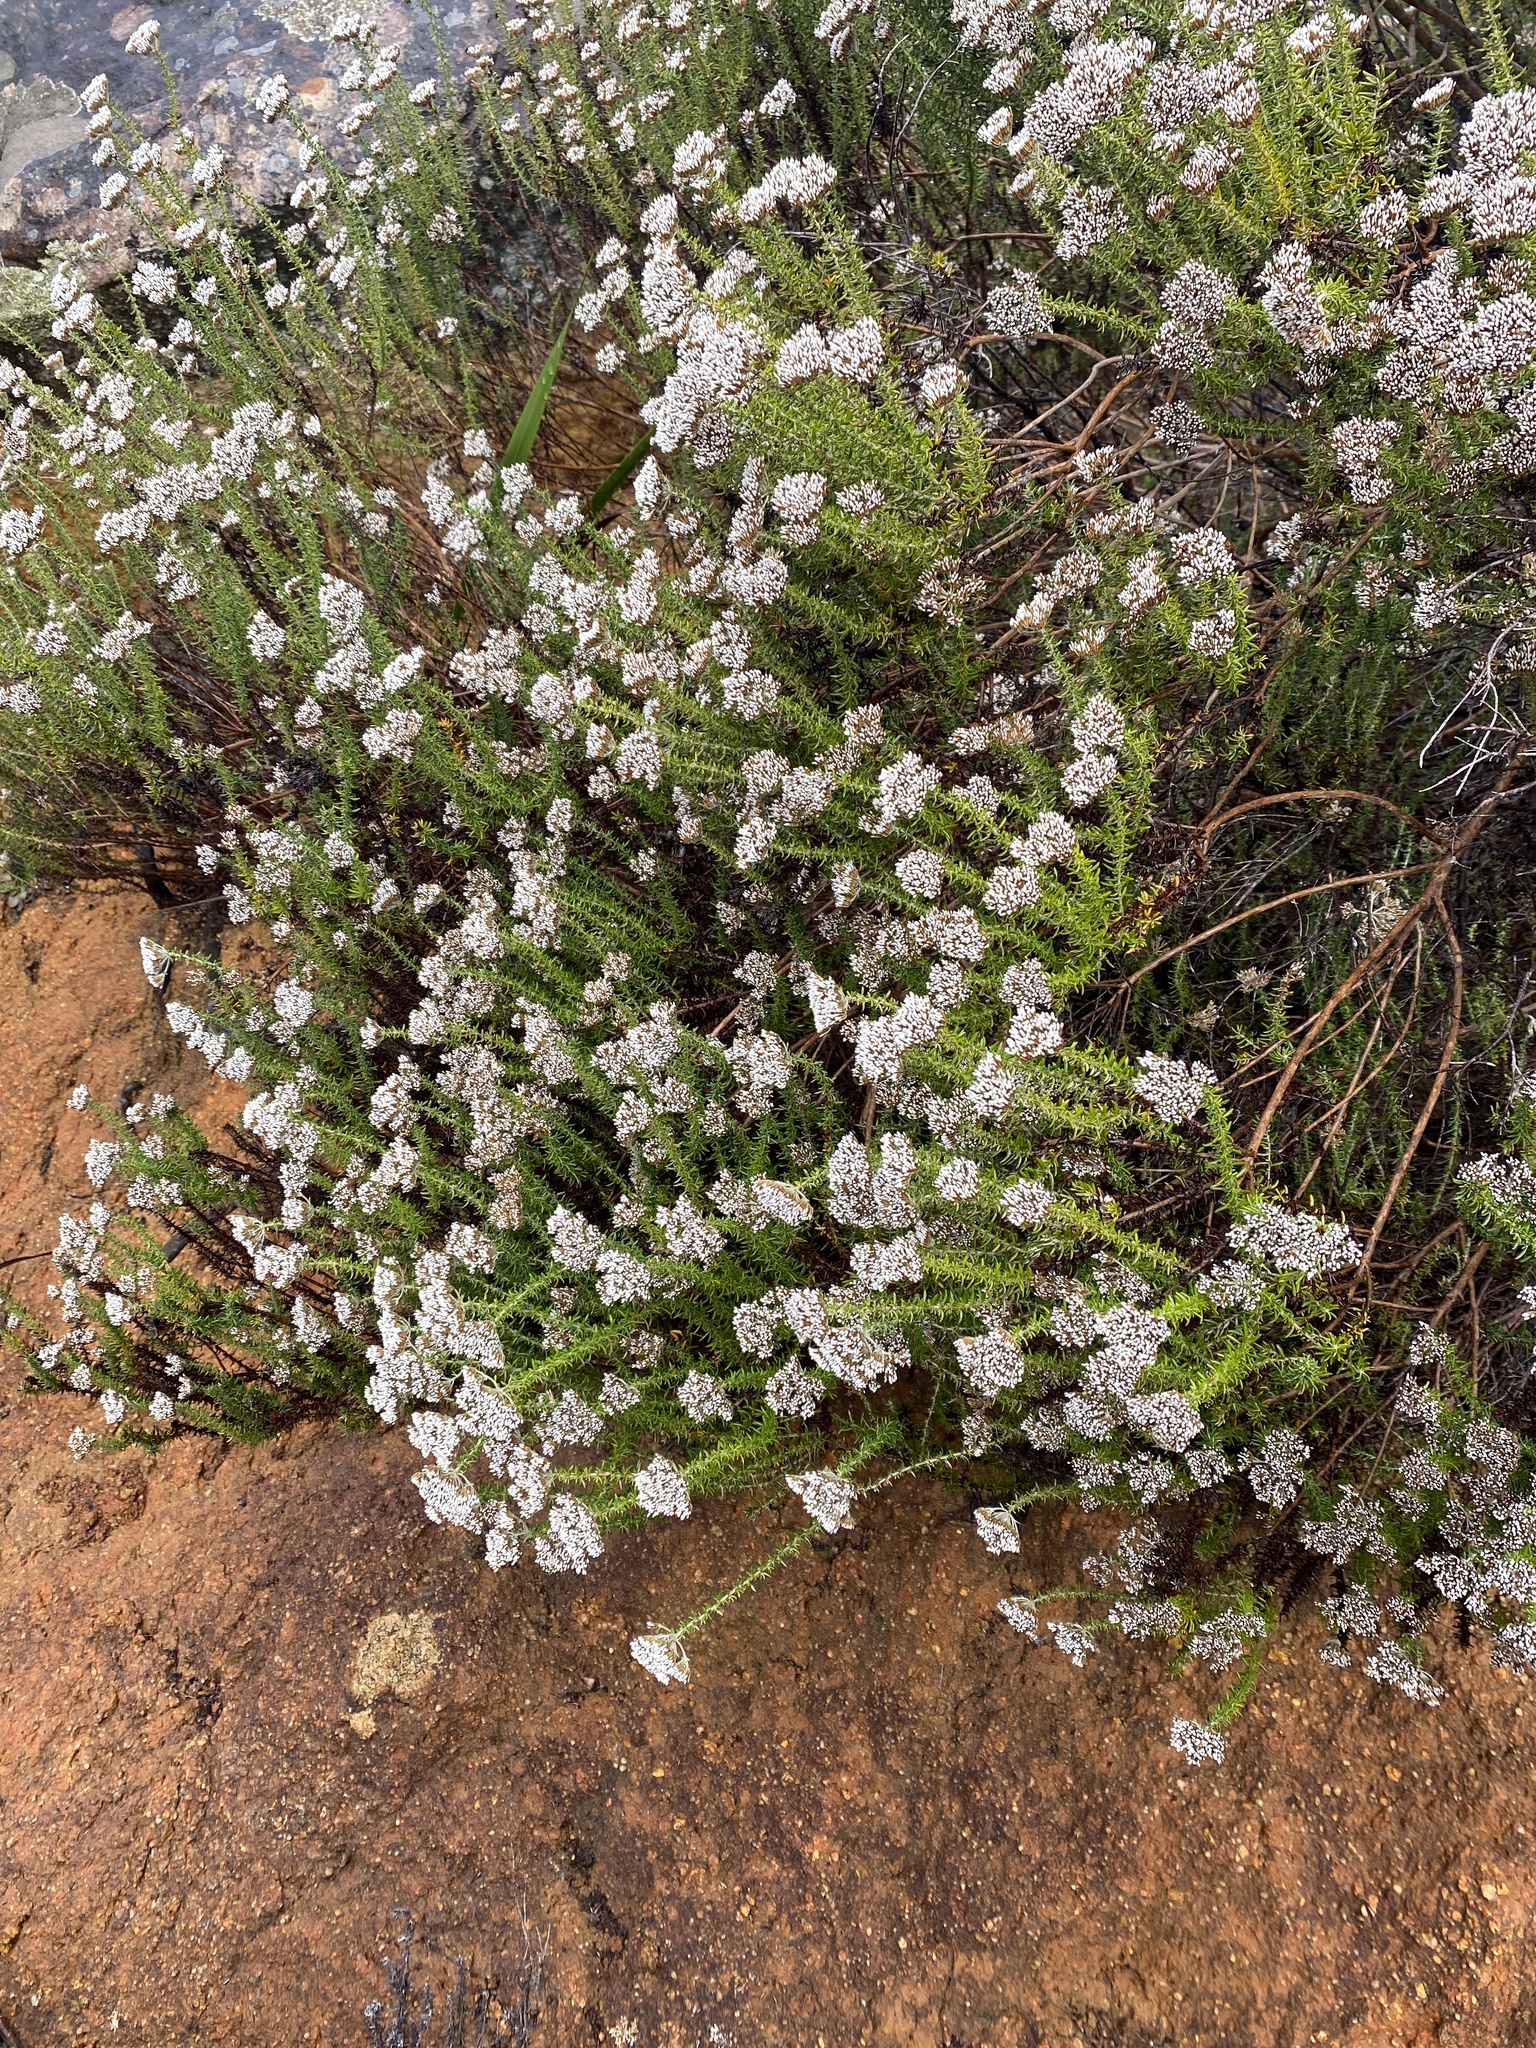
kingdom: Plantae
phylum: Tracheophyta
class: Magnoliopsida
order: Asterales
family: Asteraceae
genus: Metalasia
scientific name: Metalasia densa
